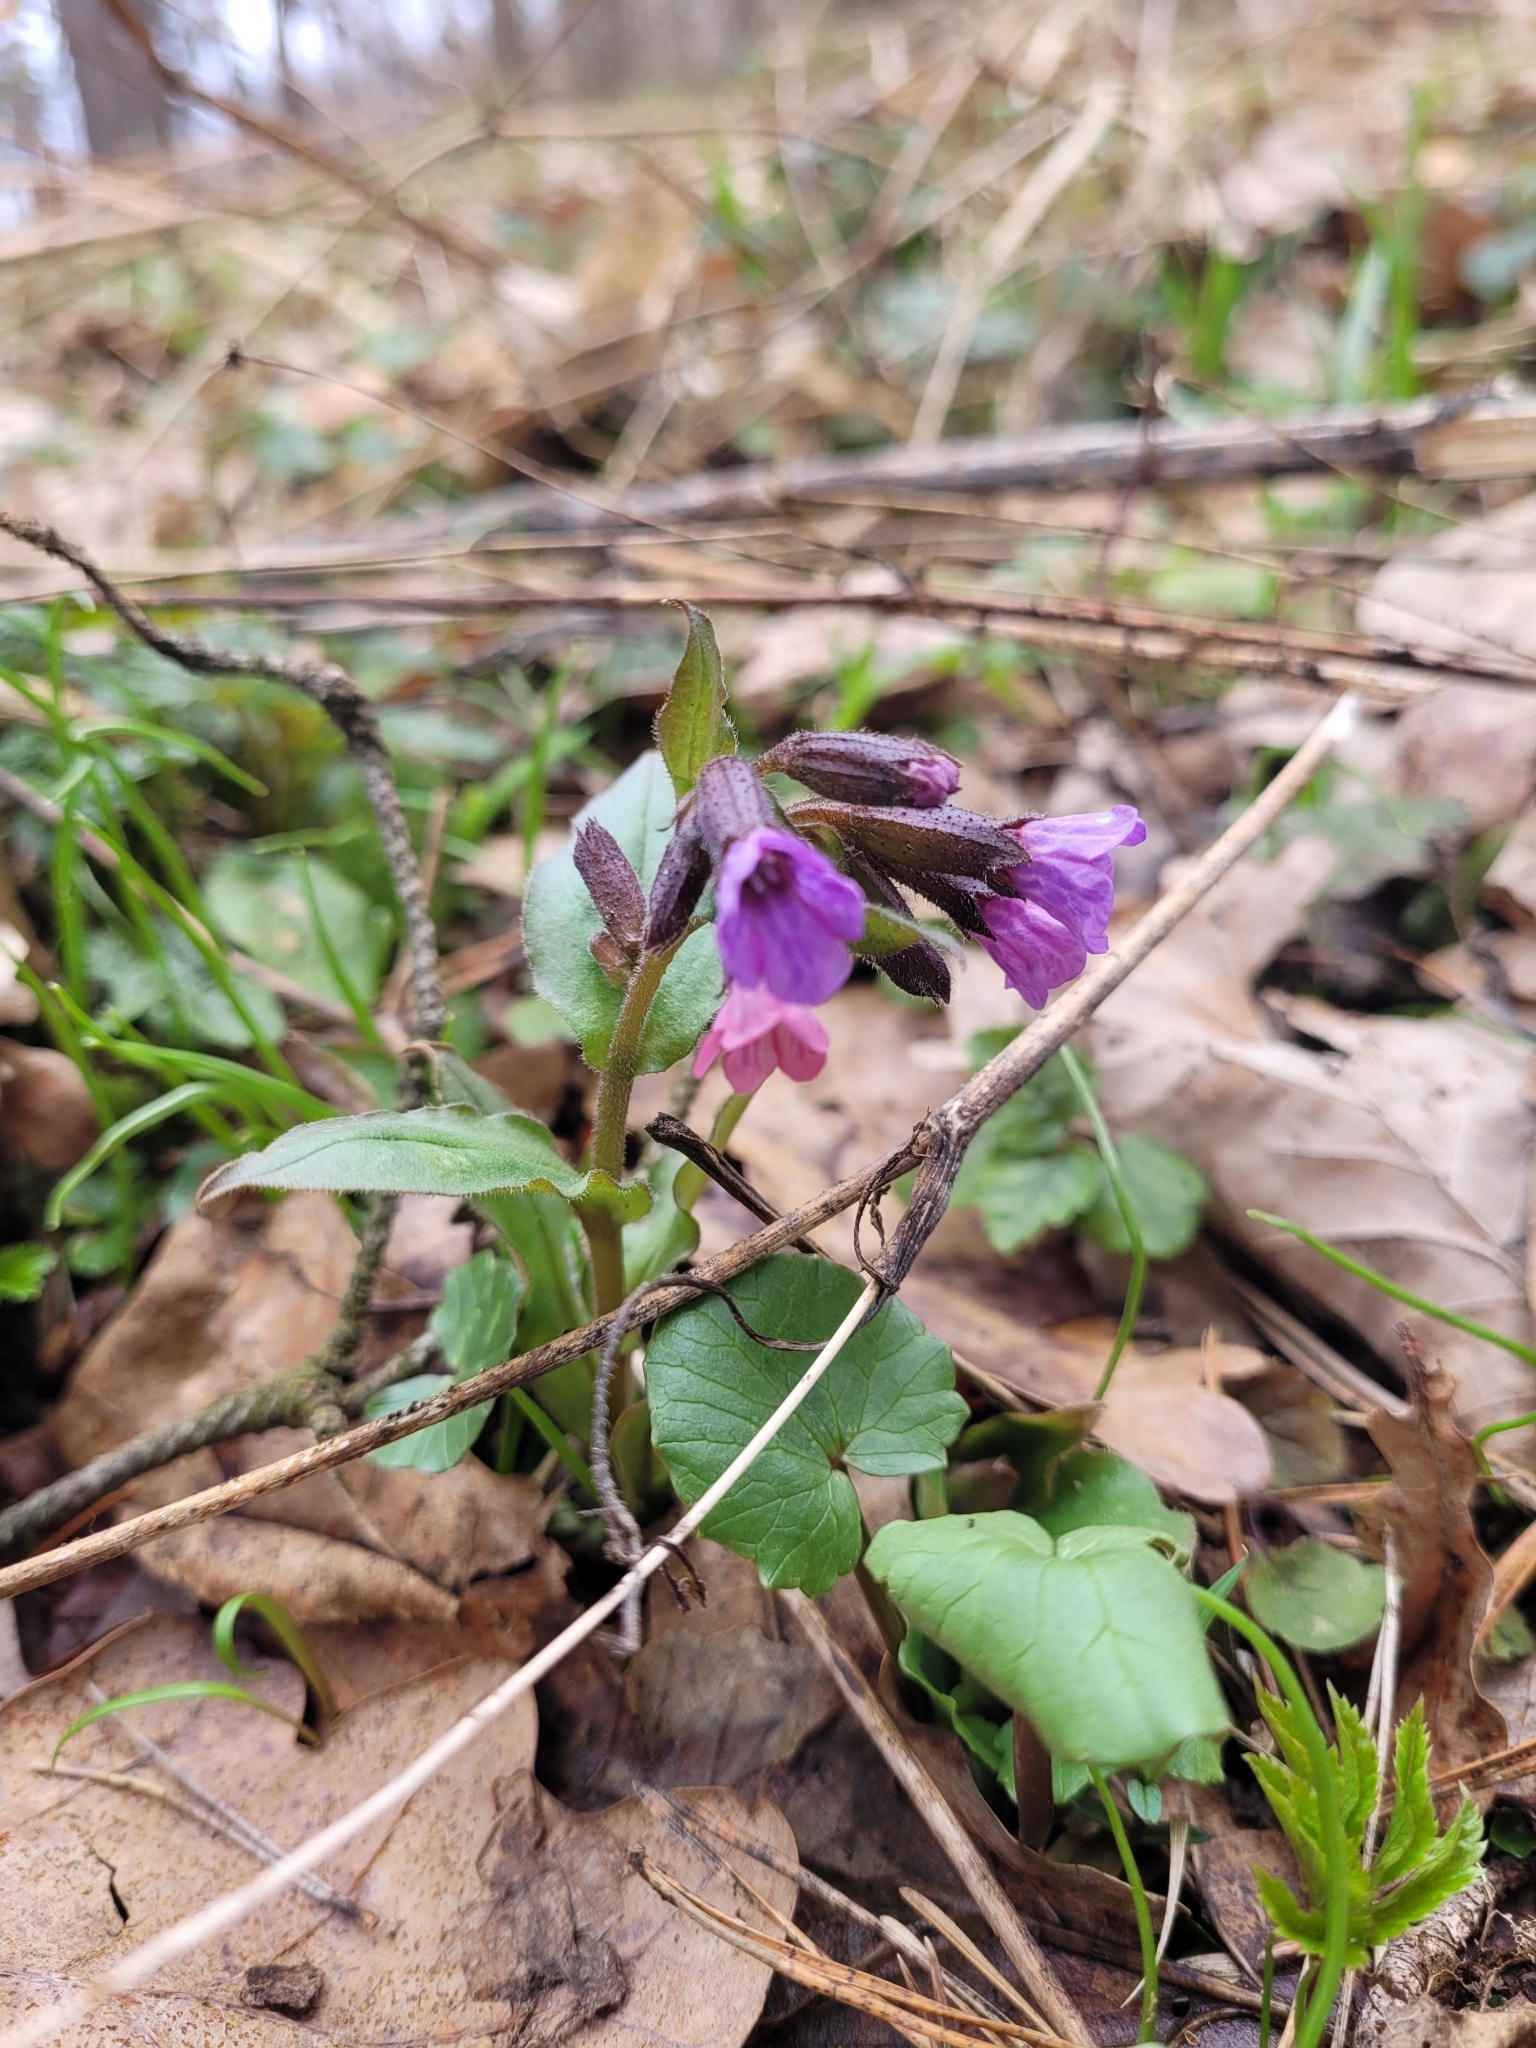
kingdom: Plantae
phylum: Tracheophyta
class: Magnoliopsida
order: Boraginales
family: Boraginaceae
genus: Pulmonaria
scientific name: Pulmonaria obscura
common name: Suffolk lungwort
